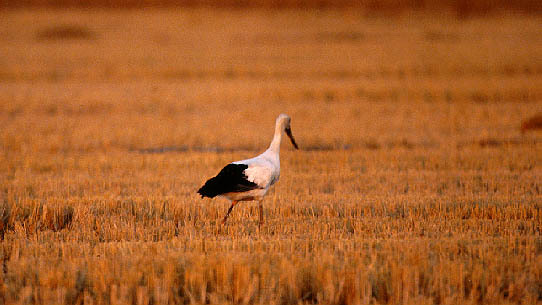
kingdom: Animalia
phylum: Chordata
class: Aves
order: Ciconiiformes
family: Ciconiidae
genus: Ciconia
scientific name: Ciconia boyciana
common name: Oriental stork
